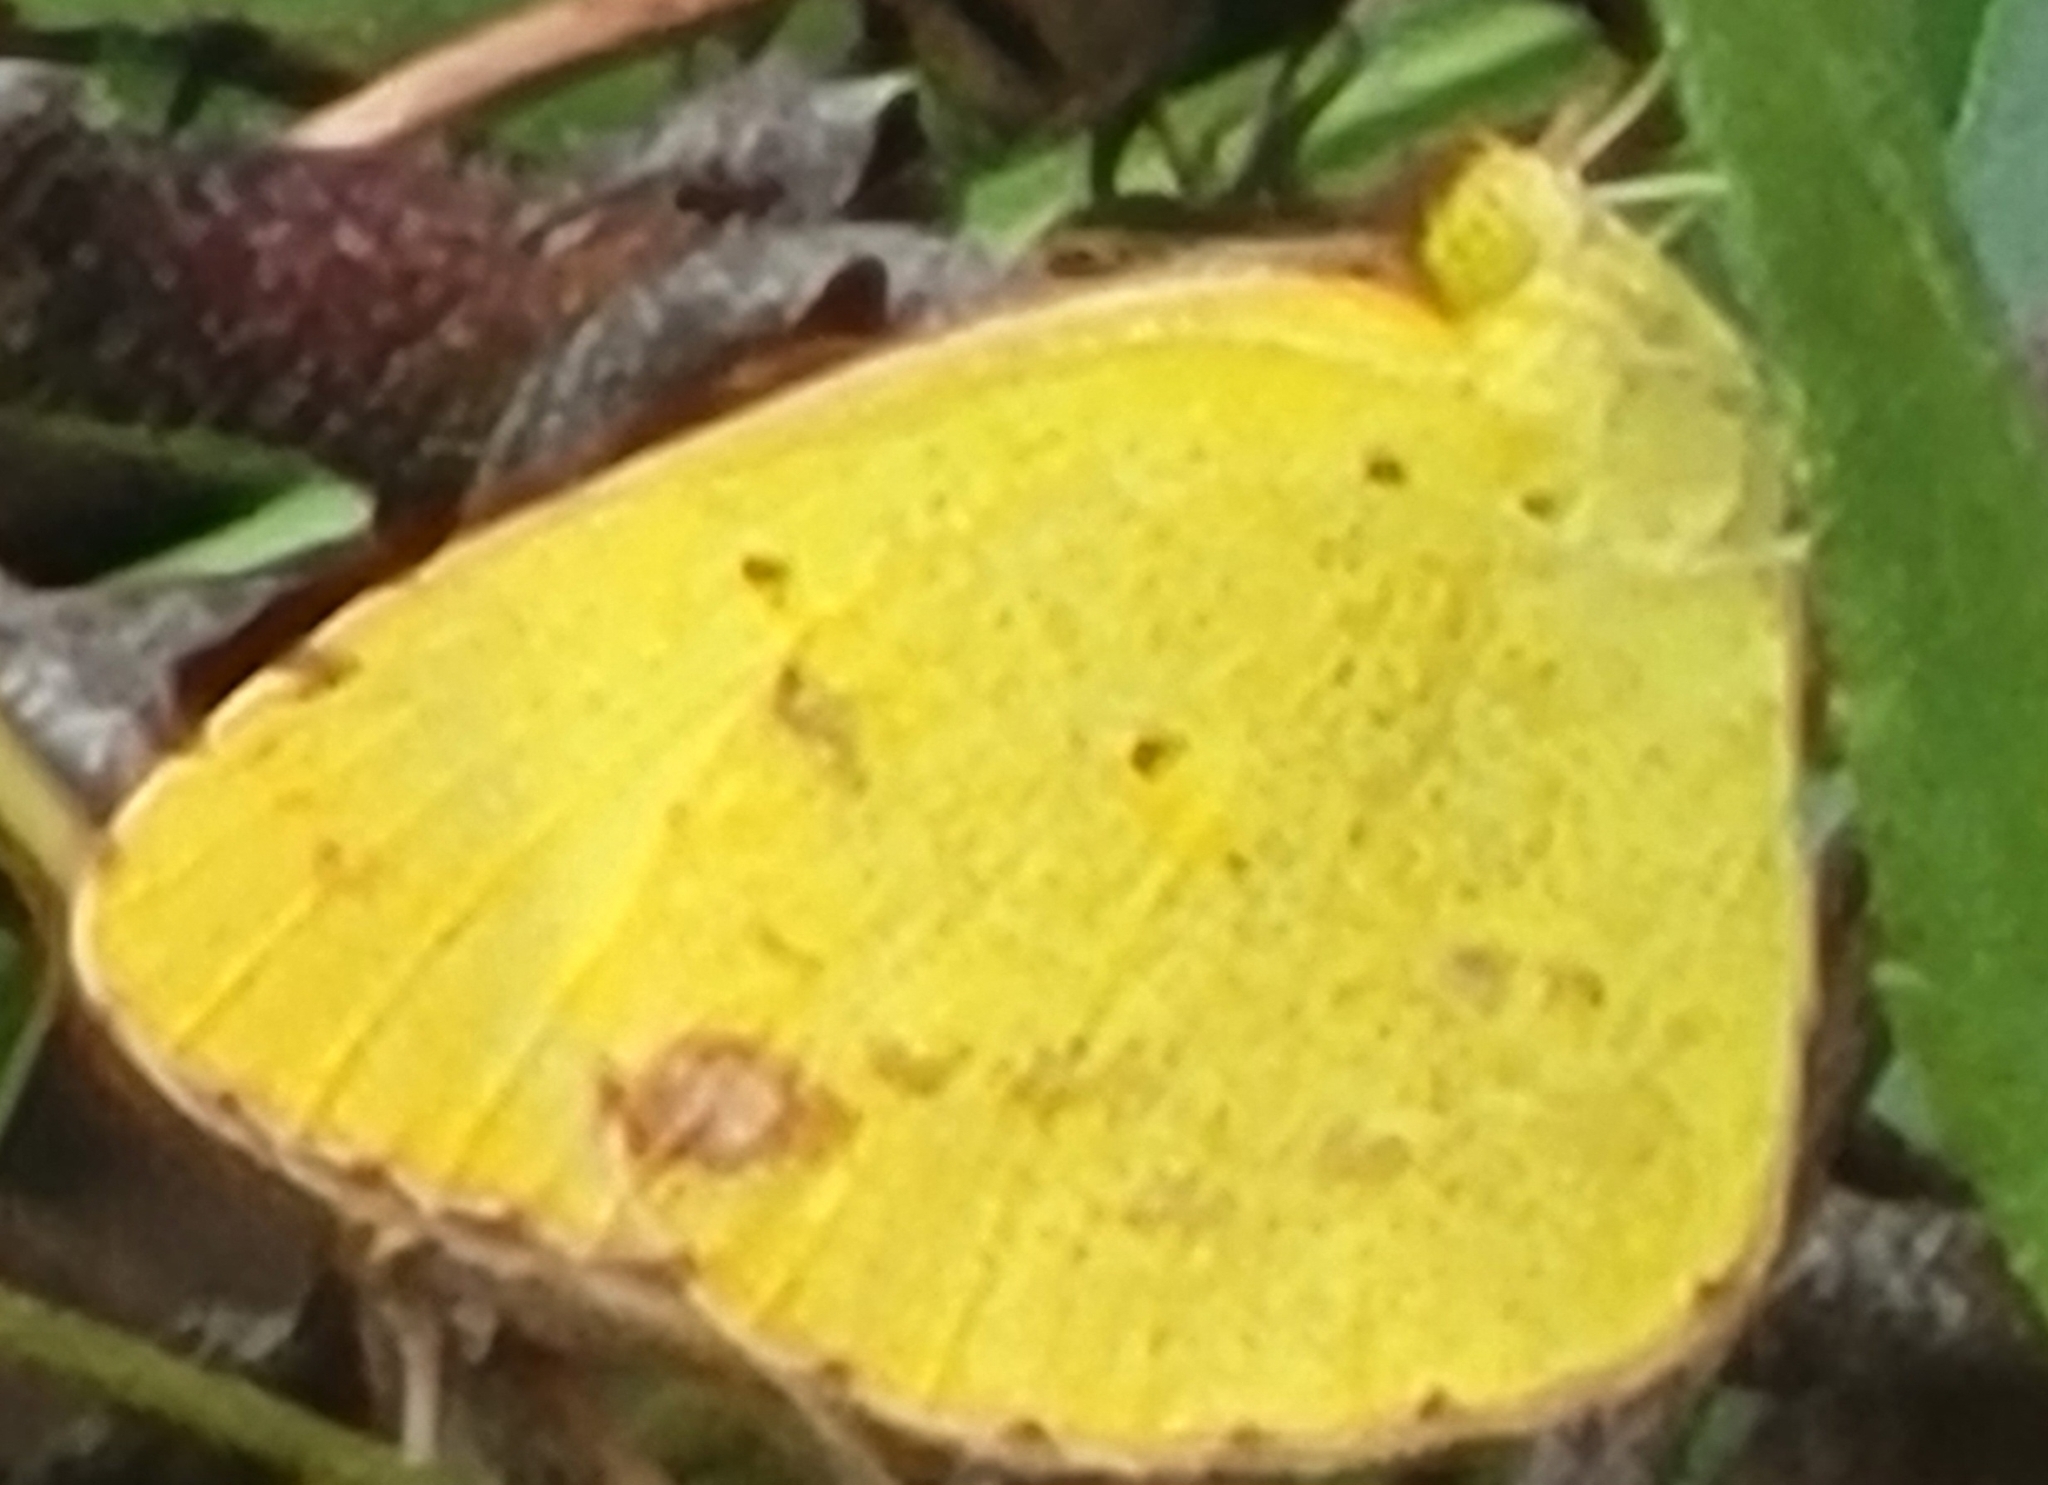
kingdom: Animalia
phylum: Arthropoda
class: Insecta
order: Lepidoptera
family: Pieridae
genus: Pyrisitia
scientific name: Pyrisitia lisa
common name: Little yellow
